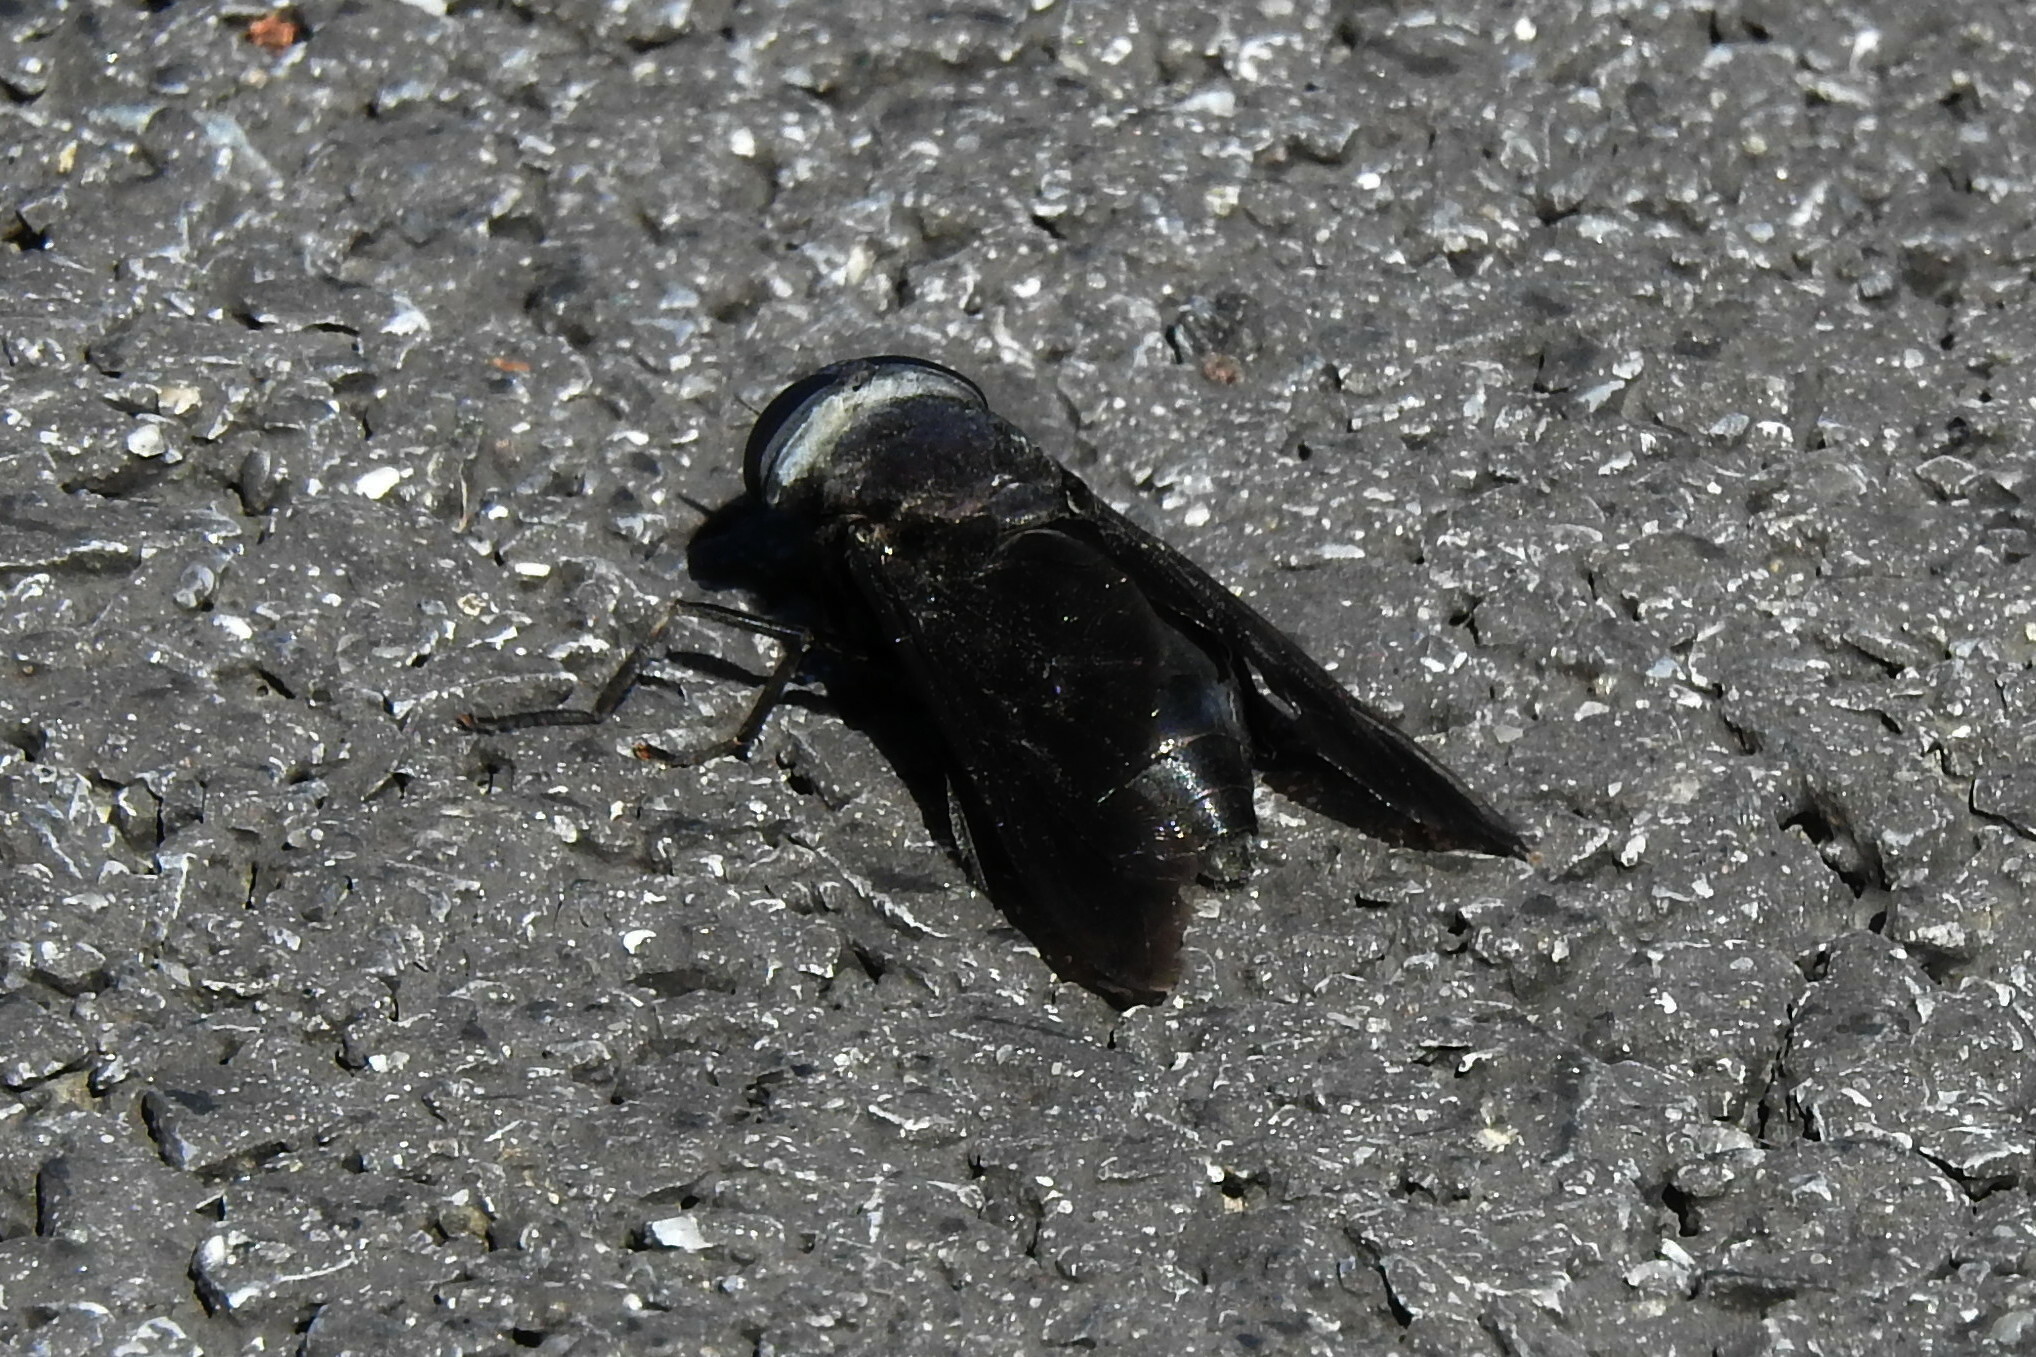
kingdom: Animalia
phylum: Arthropoda
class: Insecta
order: Diptera
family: Tabanidae
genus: Tabanus
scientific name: Tabanus atratus
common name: Black horse fly
